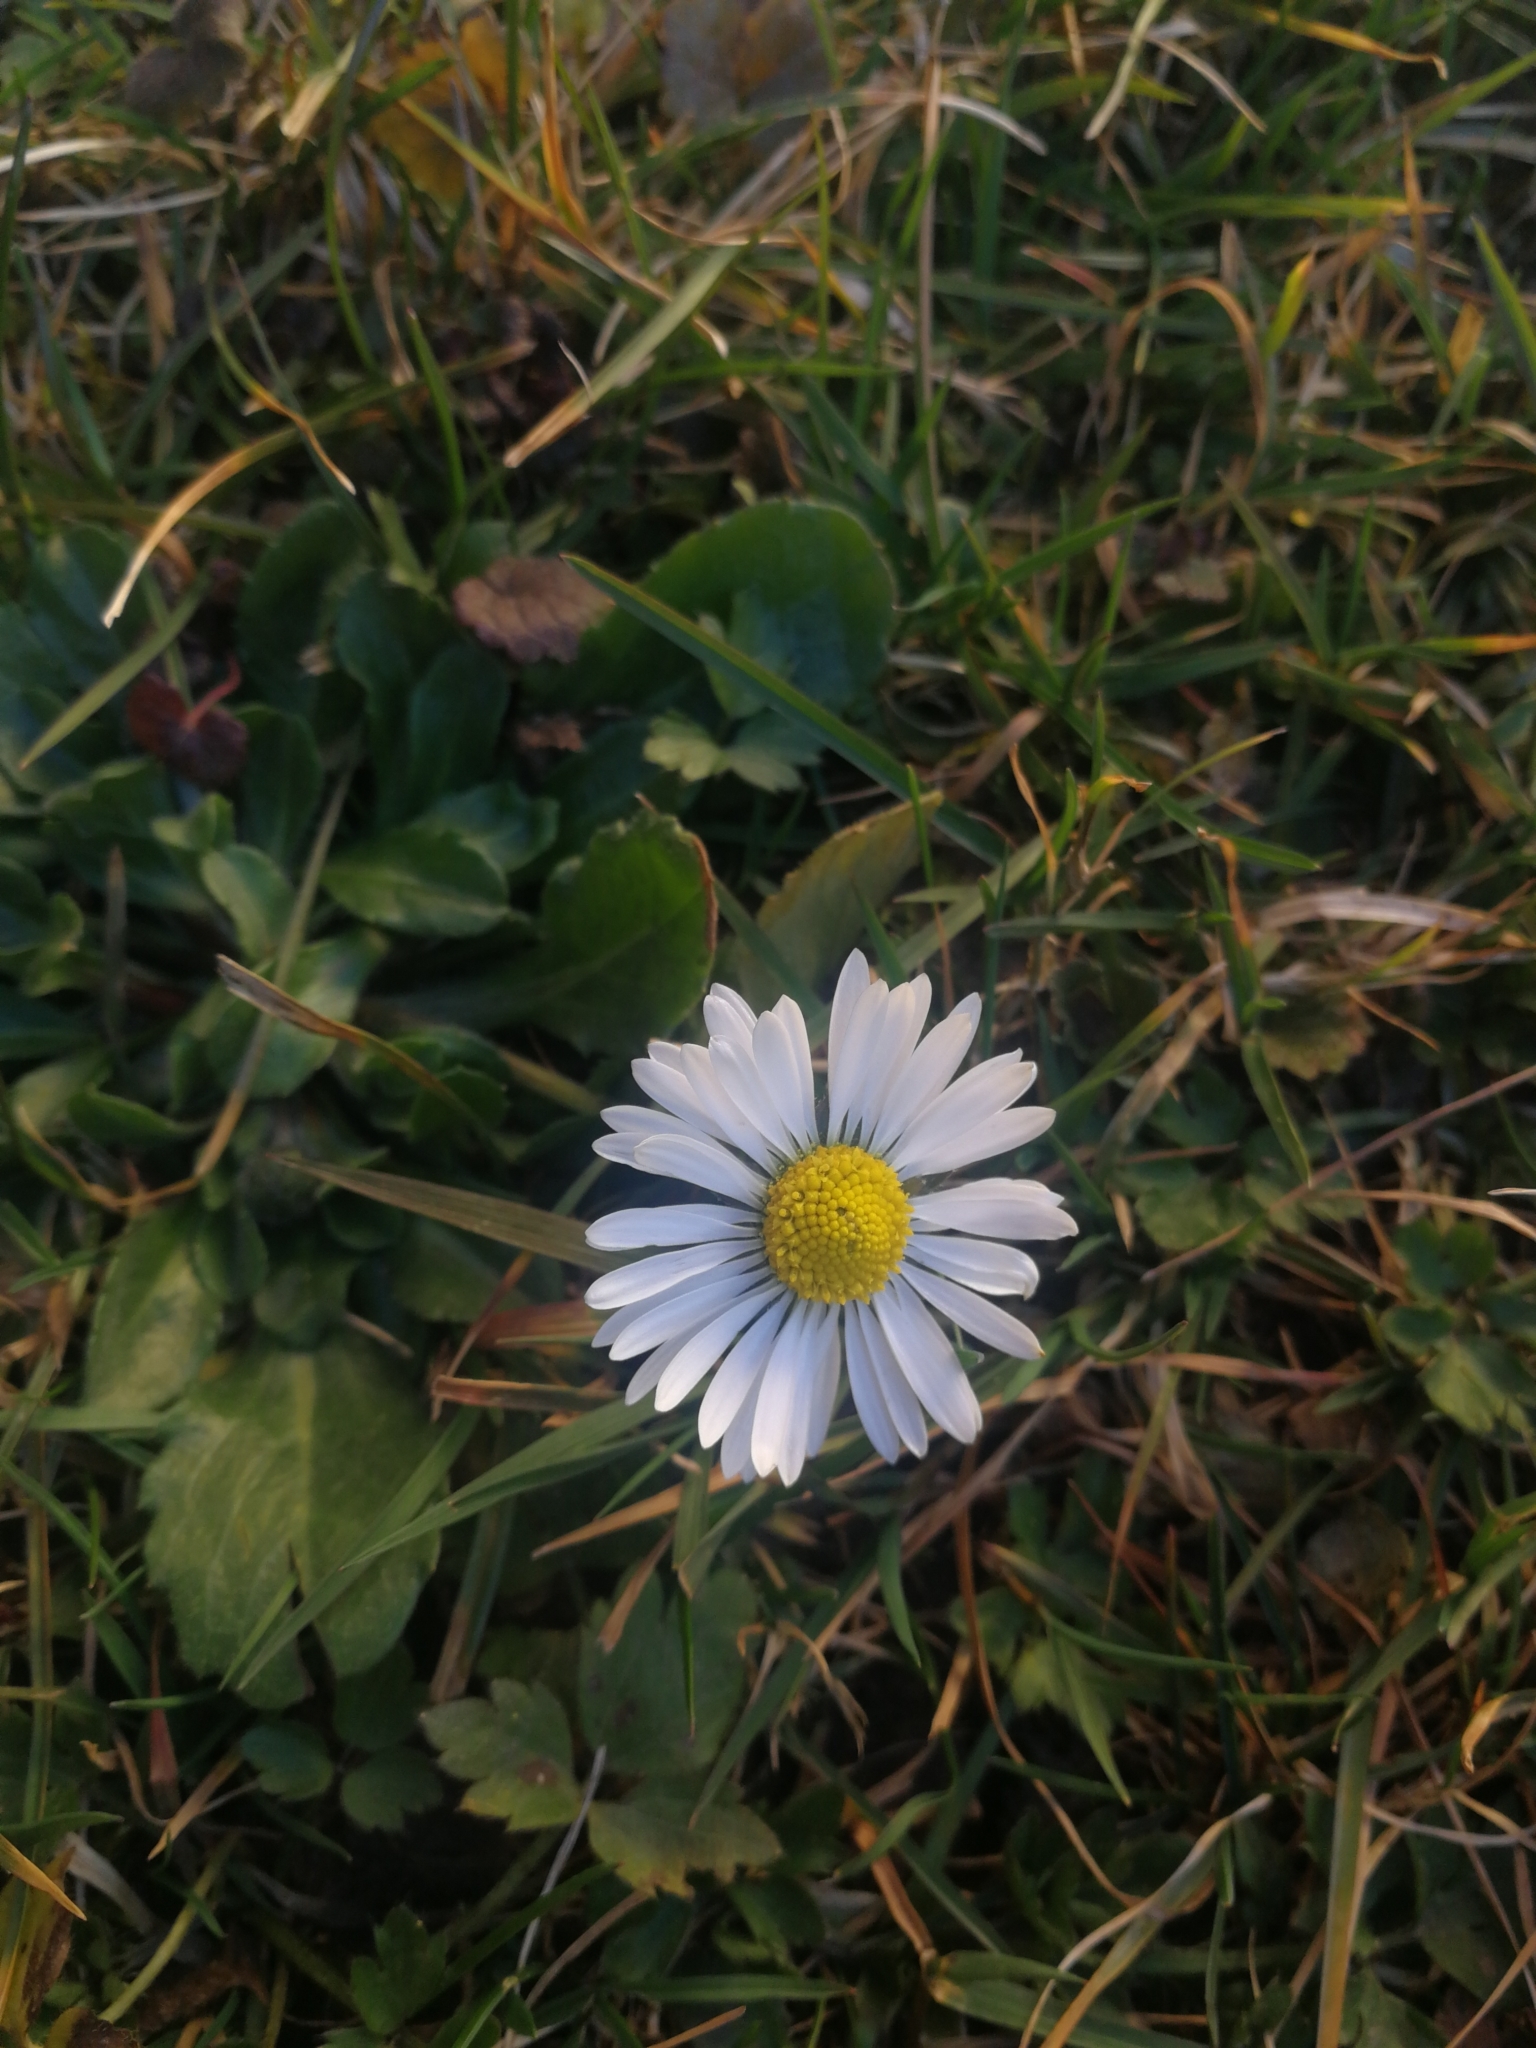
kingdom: Plantae
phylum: Tracheophyta
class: Magnoliopsida
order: Asterales
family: Asteraceae
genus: Bellis
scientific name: Bellis perennis
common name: Lawndaisy
